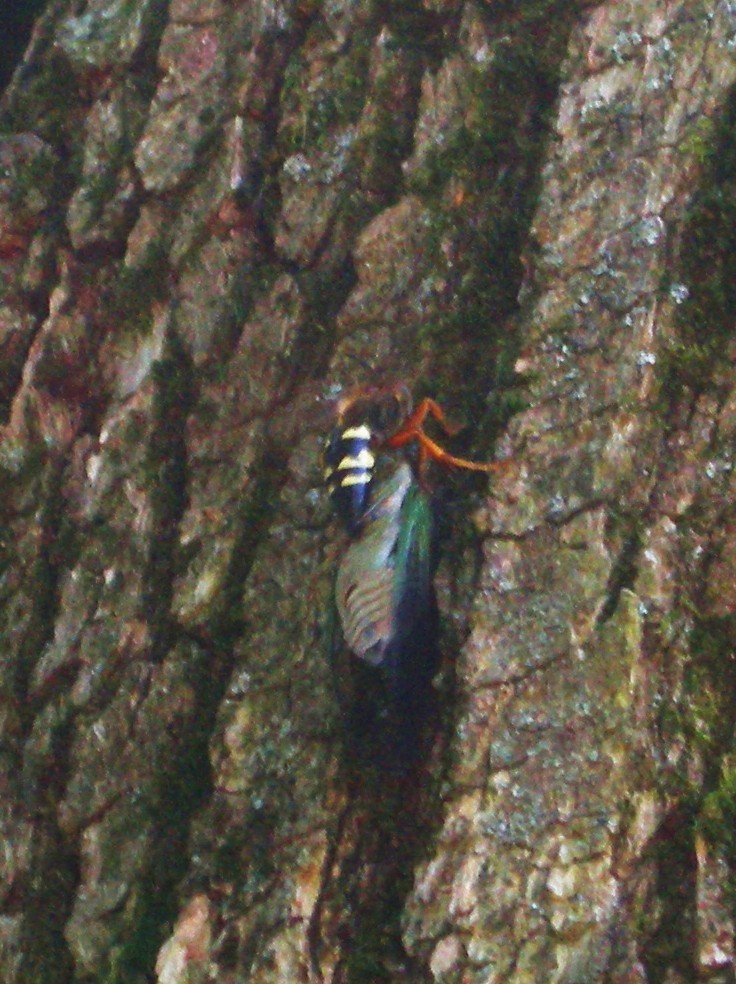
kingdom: Animalia
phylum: Arthropoda
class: Insecta
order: Hymenoptera
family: Crabronidae
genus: Sphecius
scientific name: Sphecius speciosus
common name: Cicada killer
